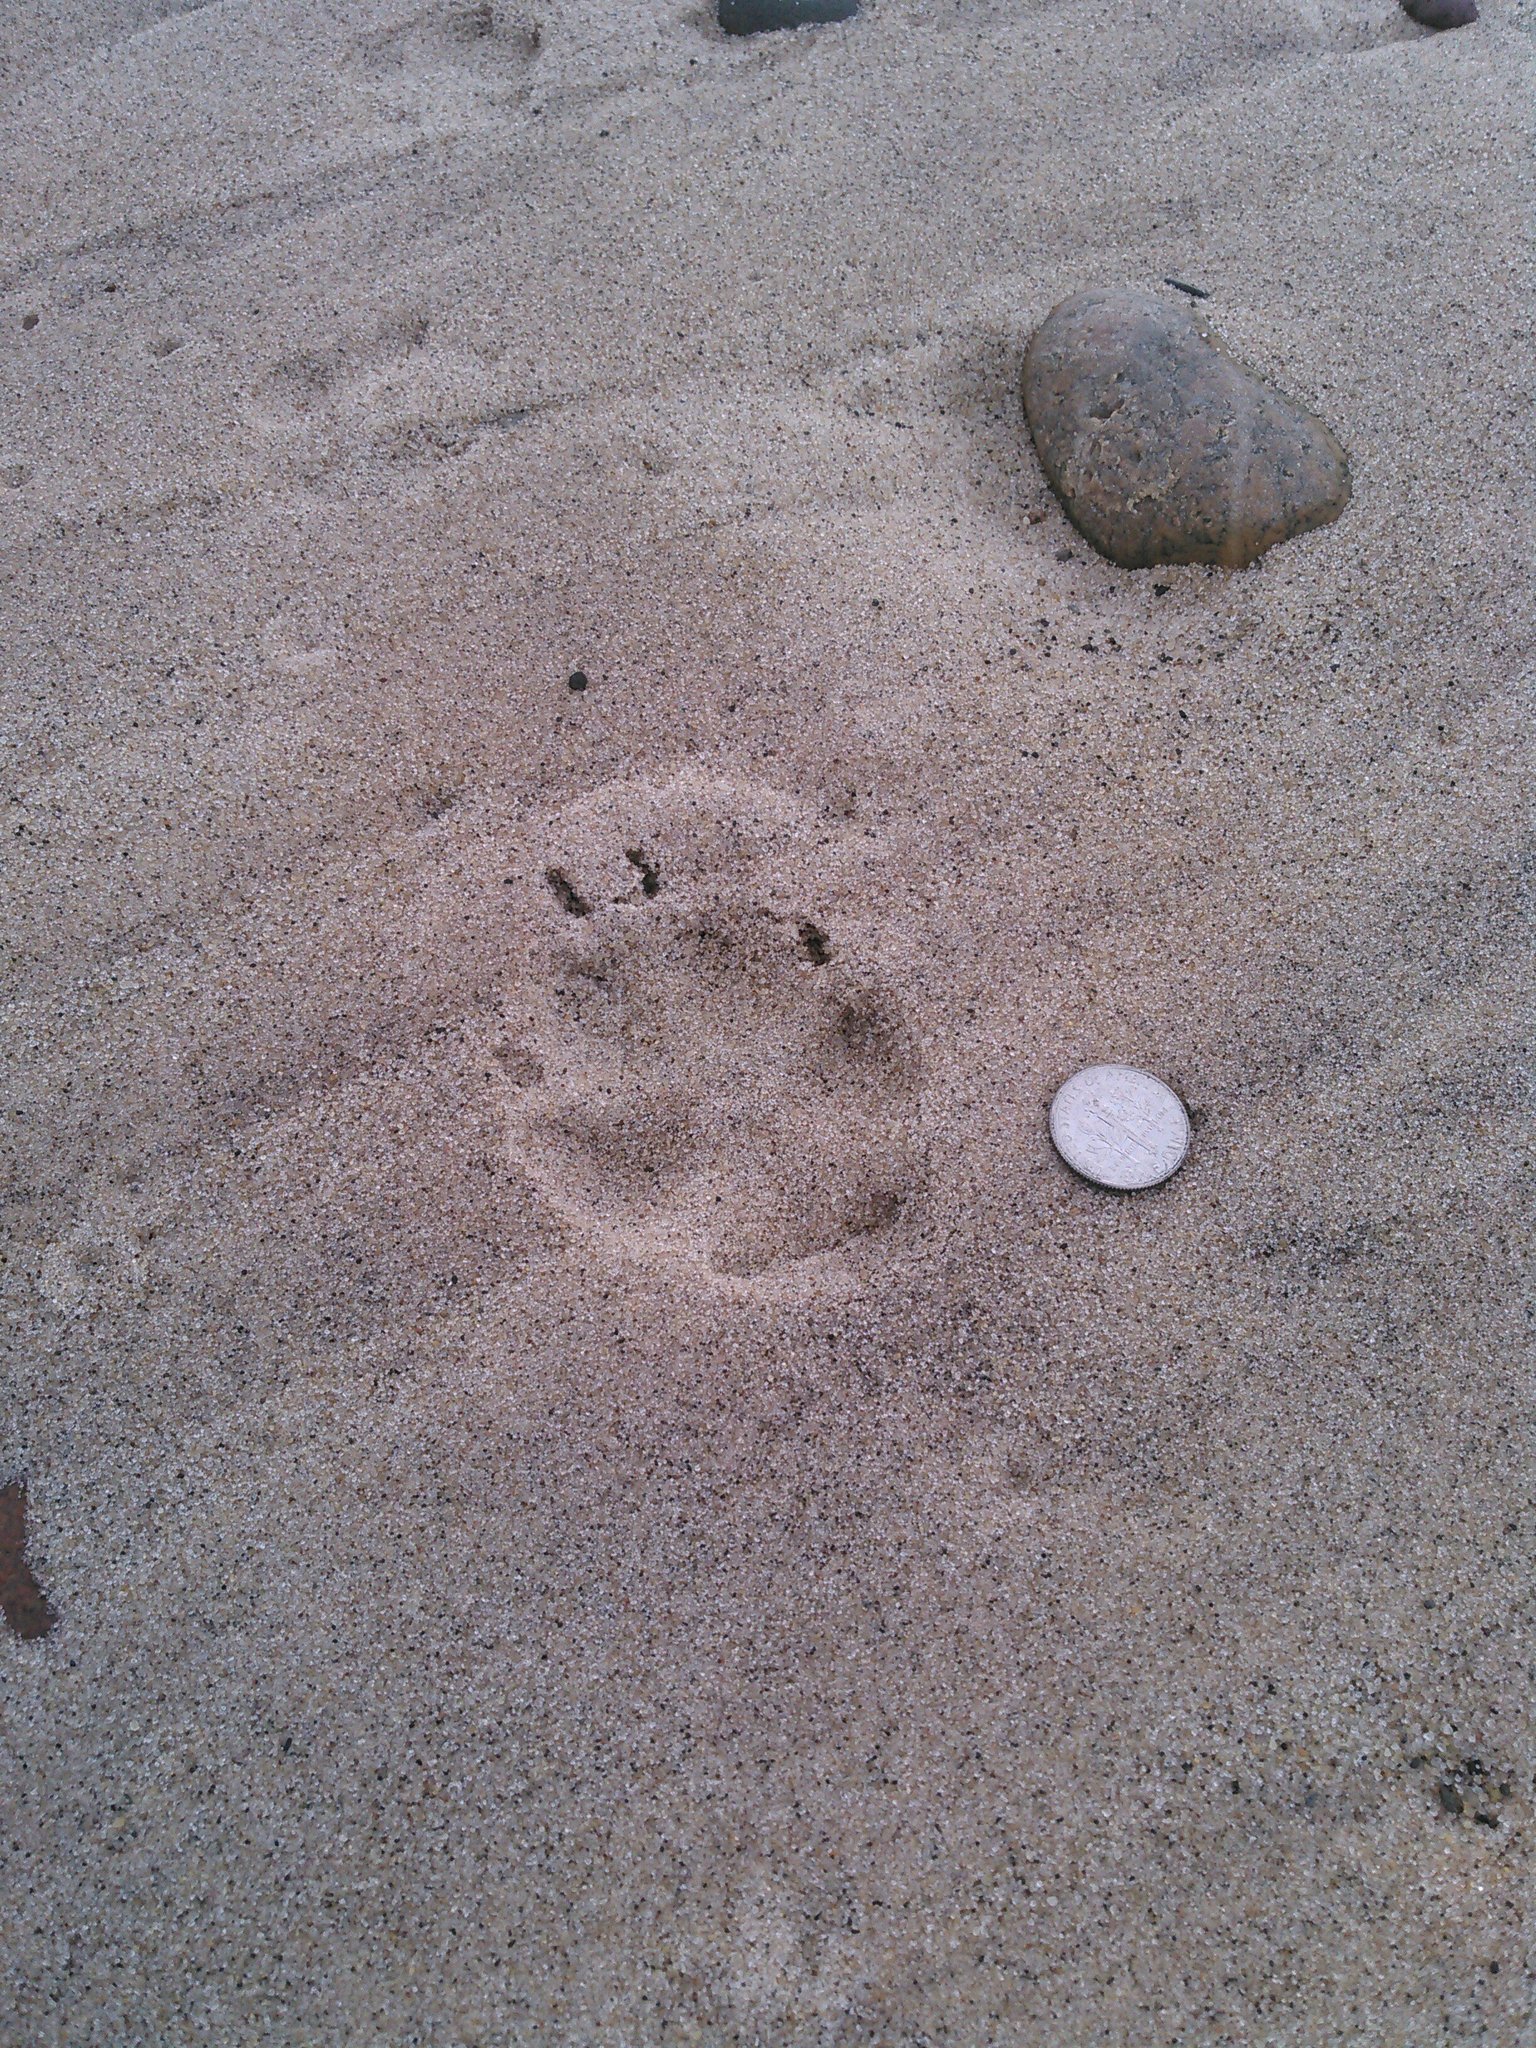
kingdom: Animalia
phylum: Chordata
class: Mammalia
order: Carnivora
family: Canidae
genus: Vulpes
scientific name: Vulpes vulpes
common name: Red fox
